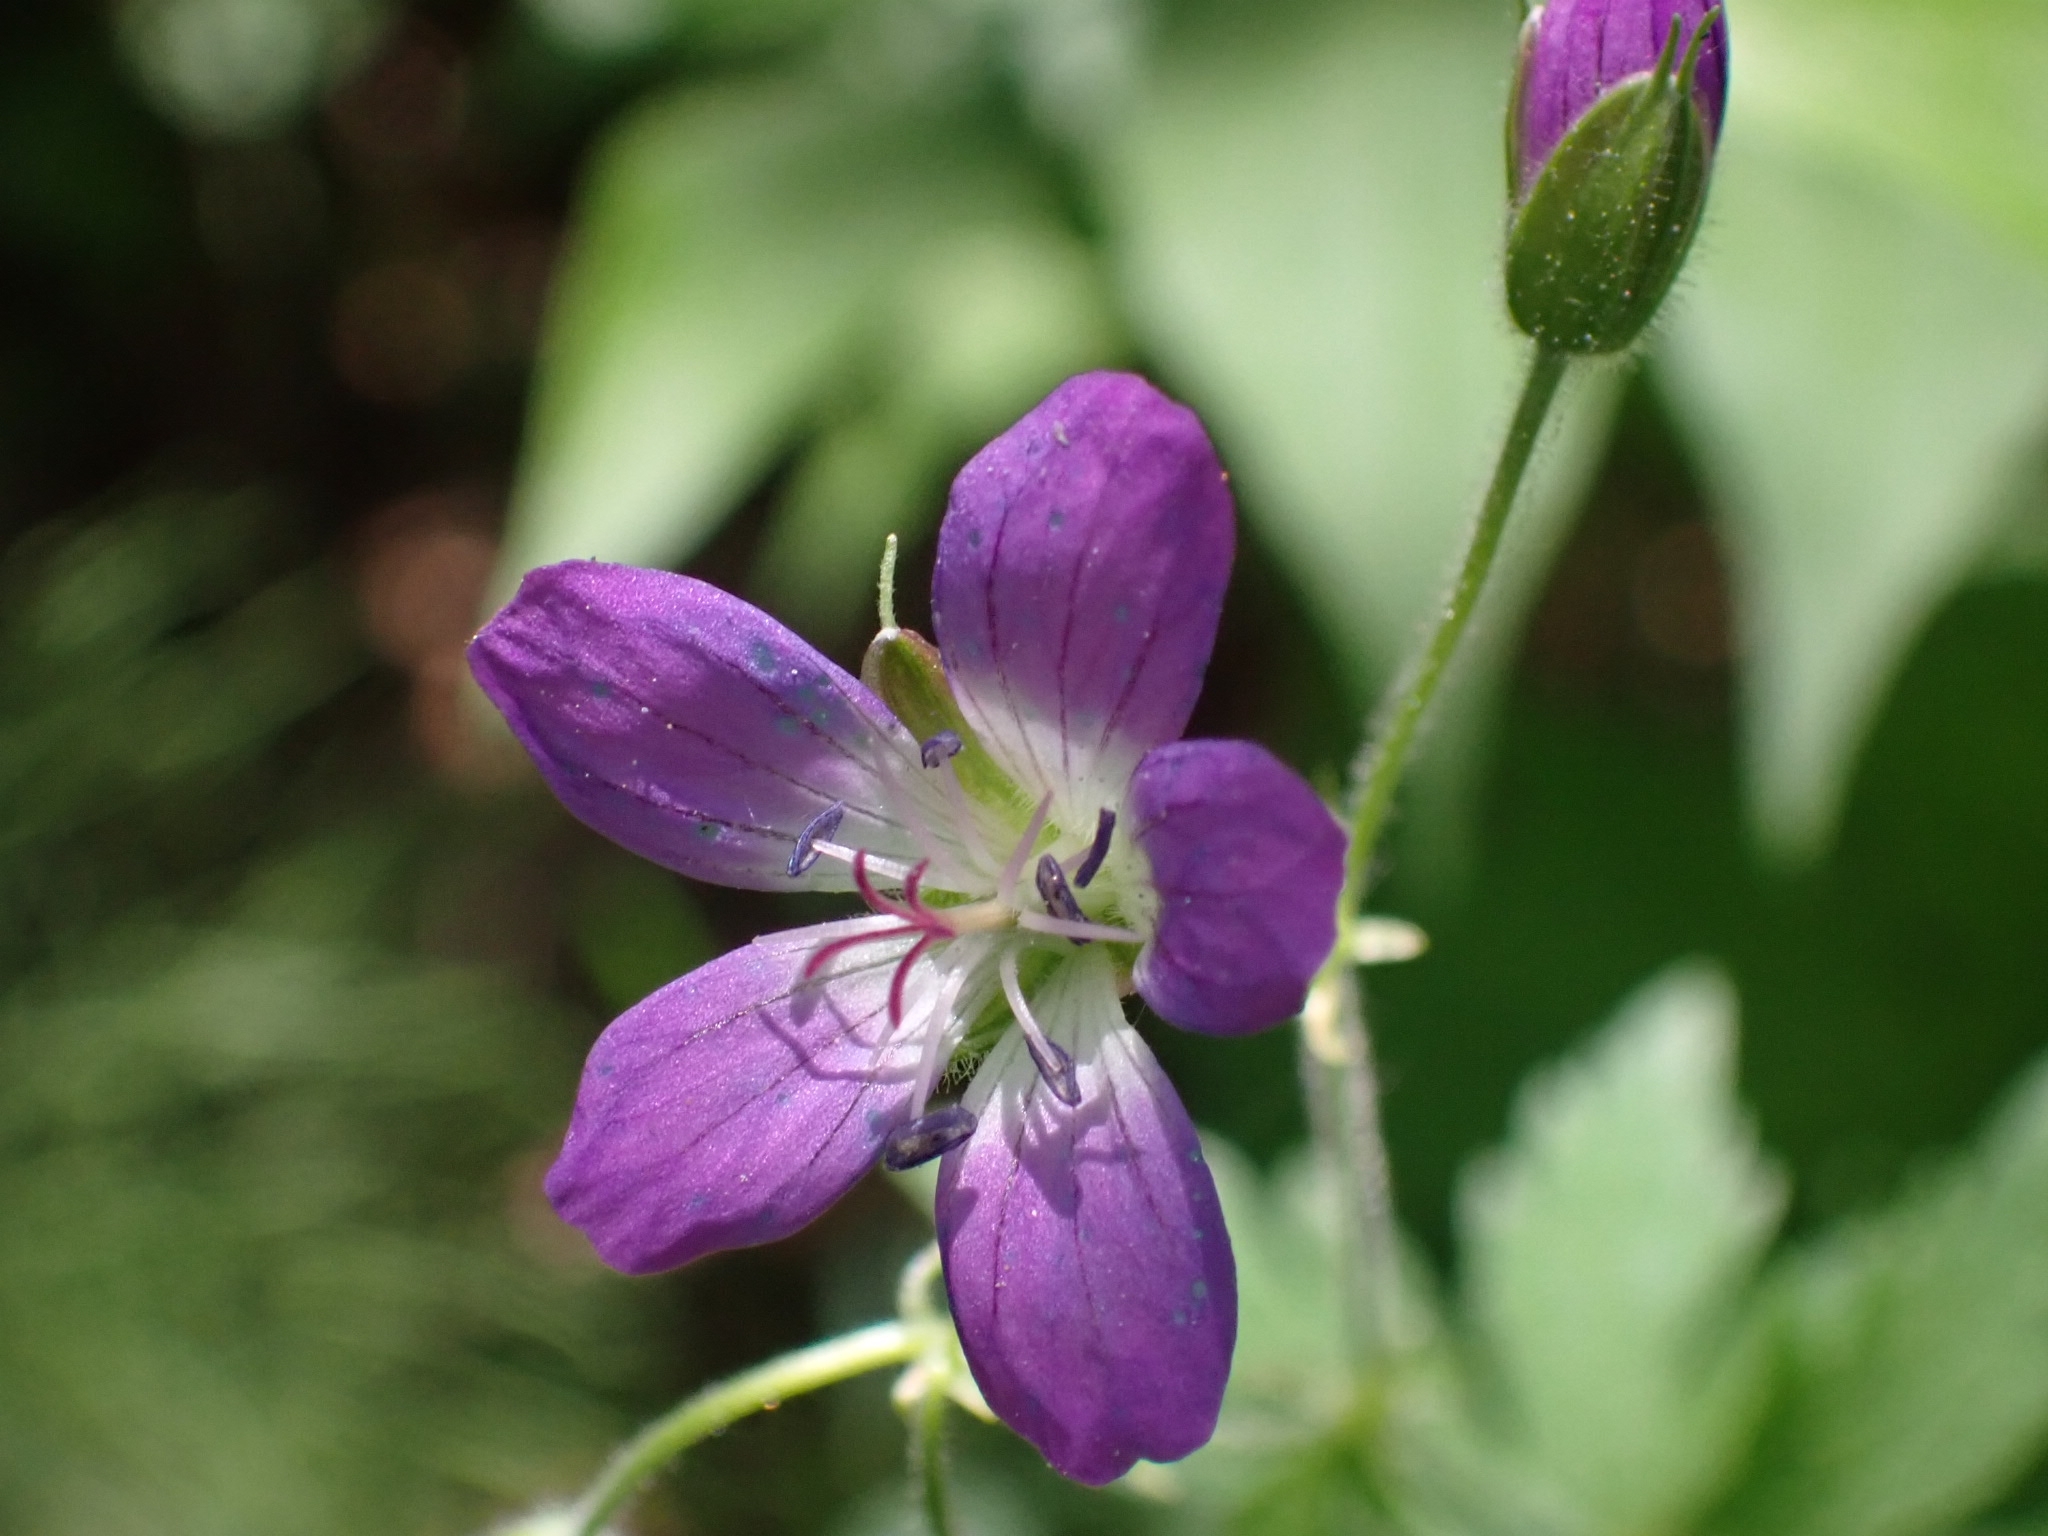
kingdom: Plantae
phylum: Tracheophyta
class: Magnoliopsida
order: Geraniales
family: Geraniaceae
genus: Geranium
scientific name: Geranium sylvaticum
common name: Wood crane's-bill
